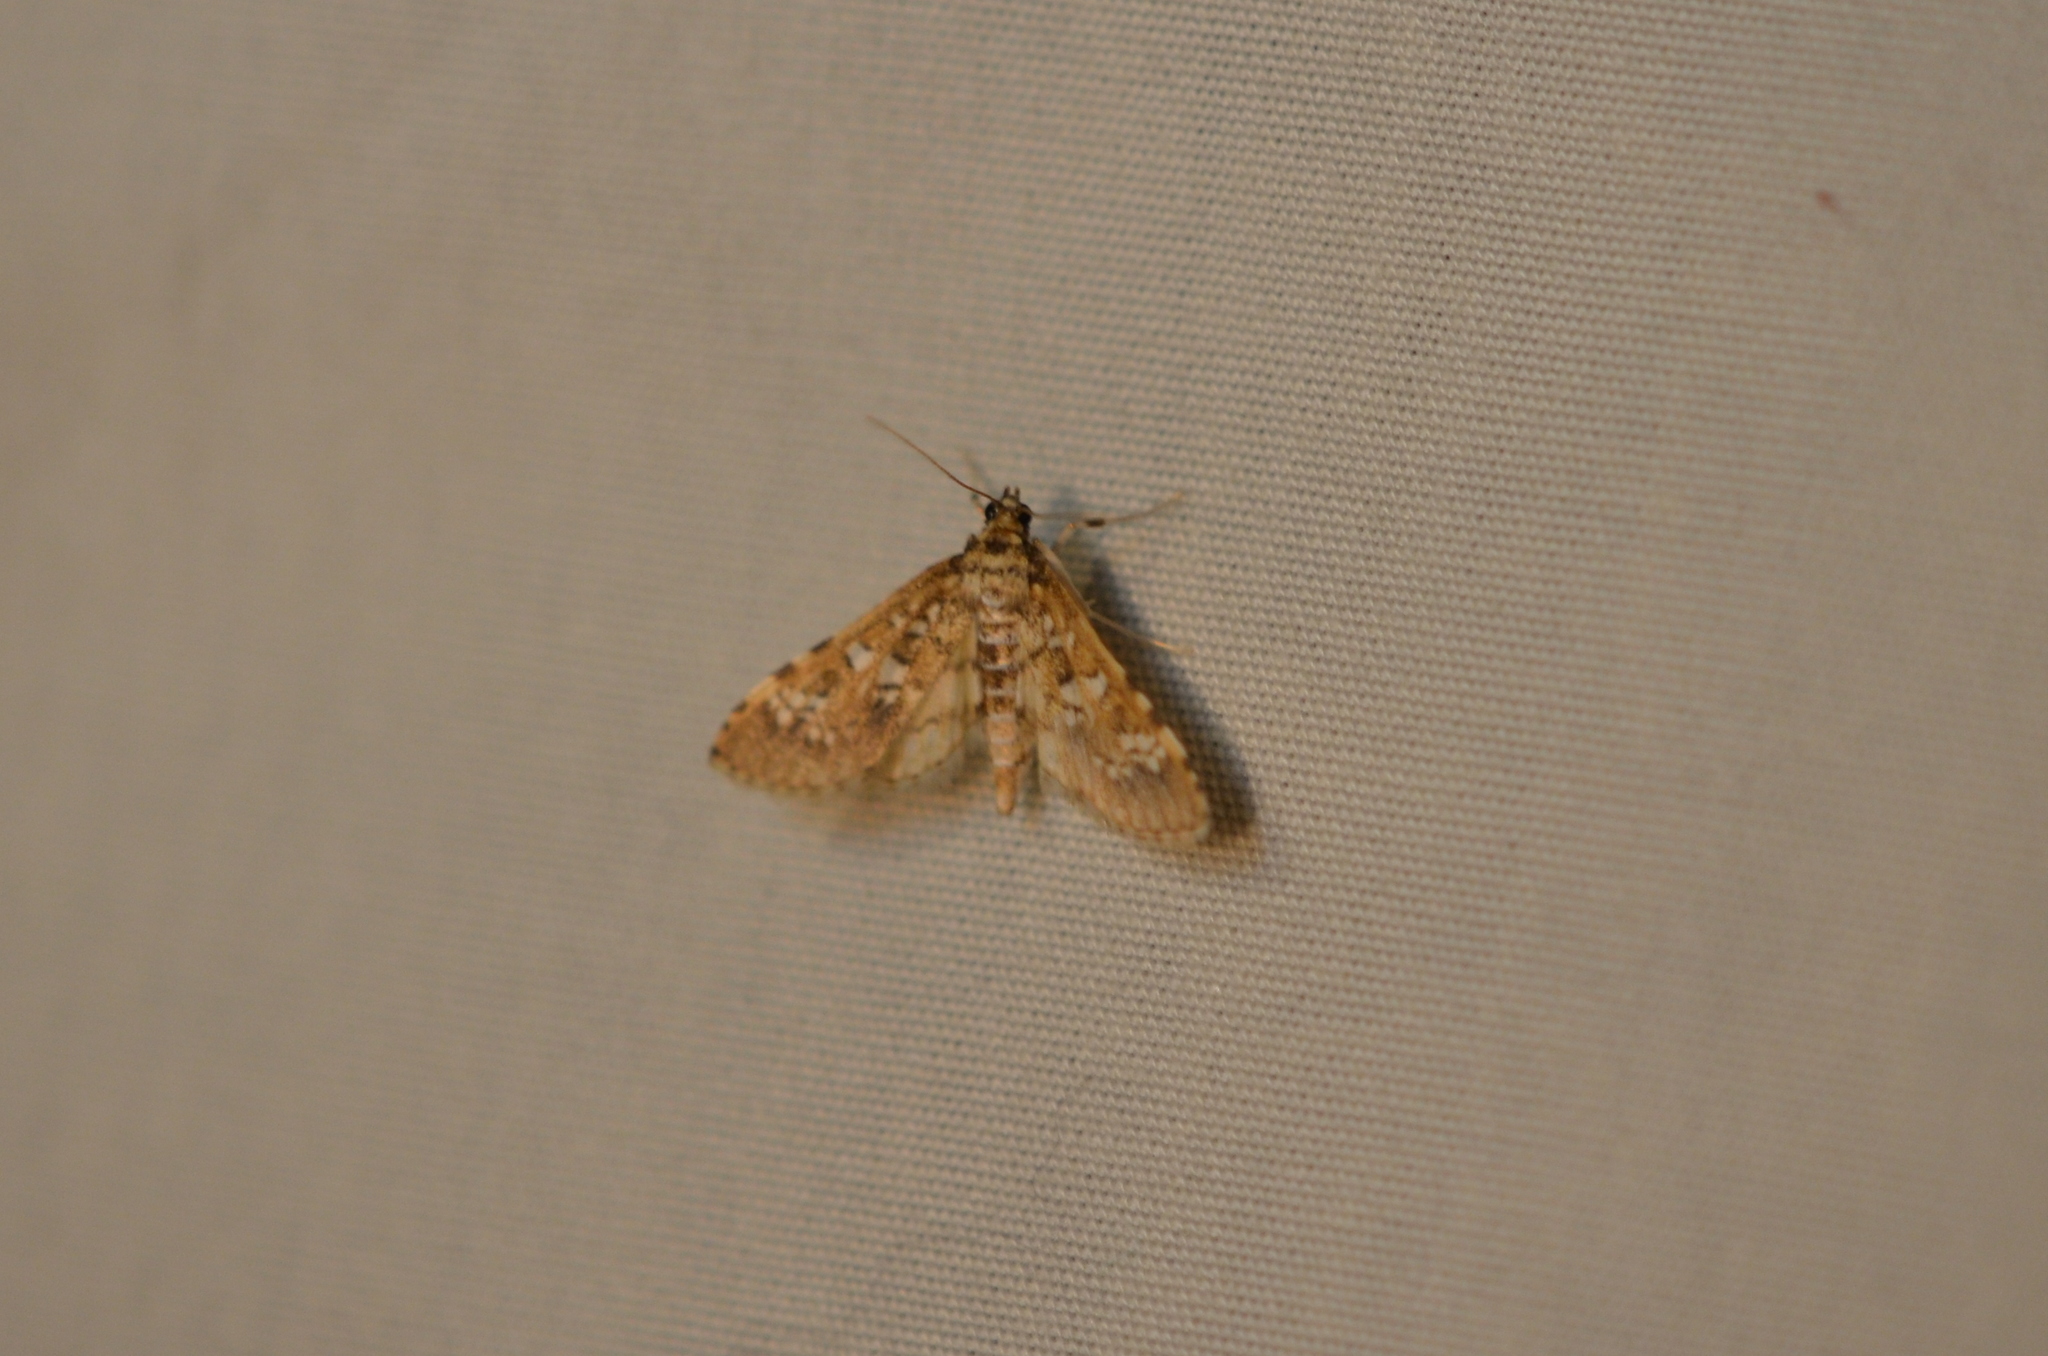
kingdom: Animalia
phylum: Arthropoda
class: Insecta
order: Lepidoptera
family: Crambidae
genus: Samea
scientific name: Samea multiplicalis
